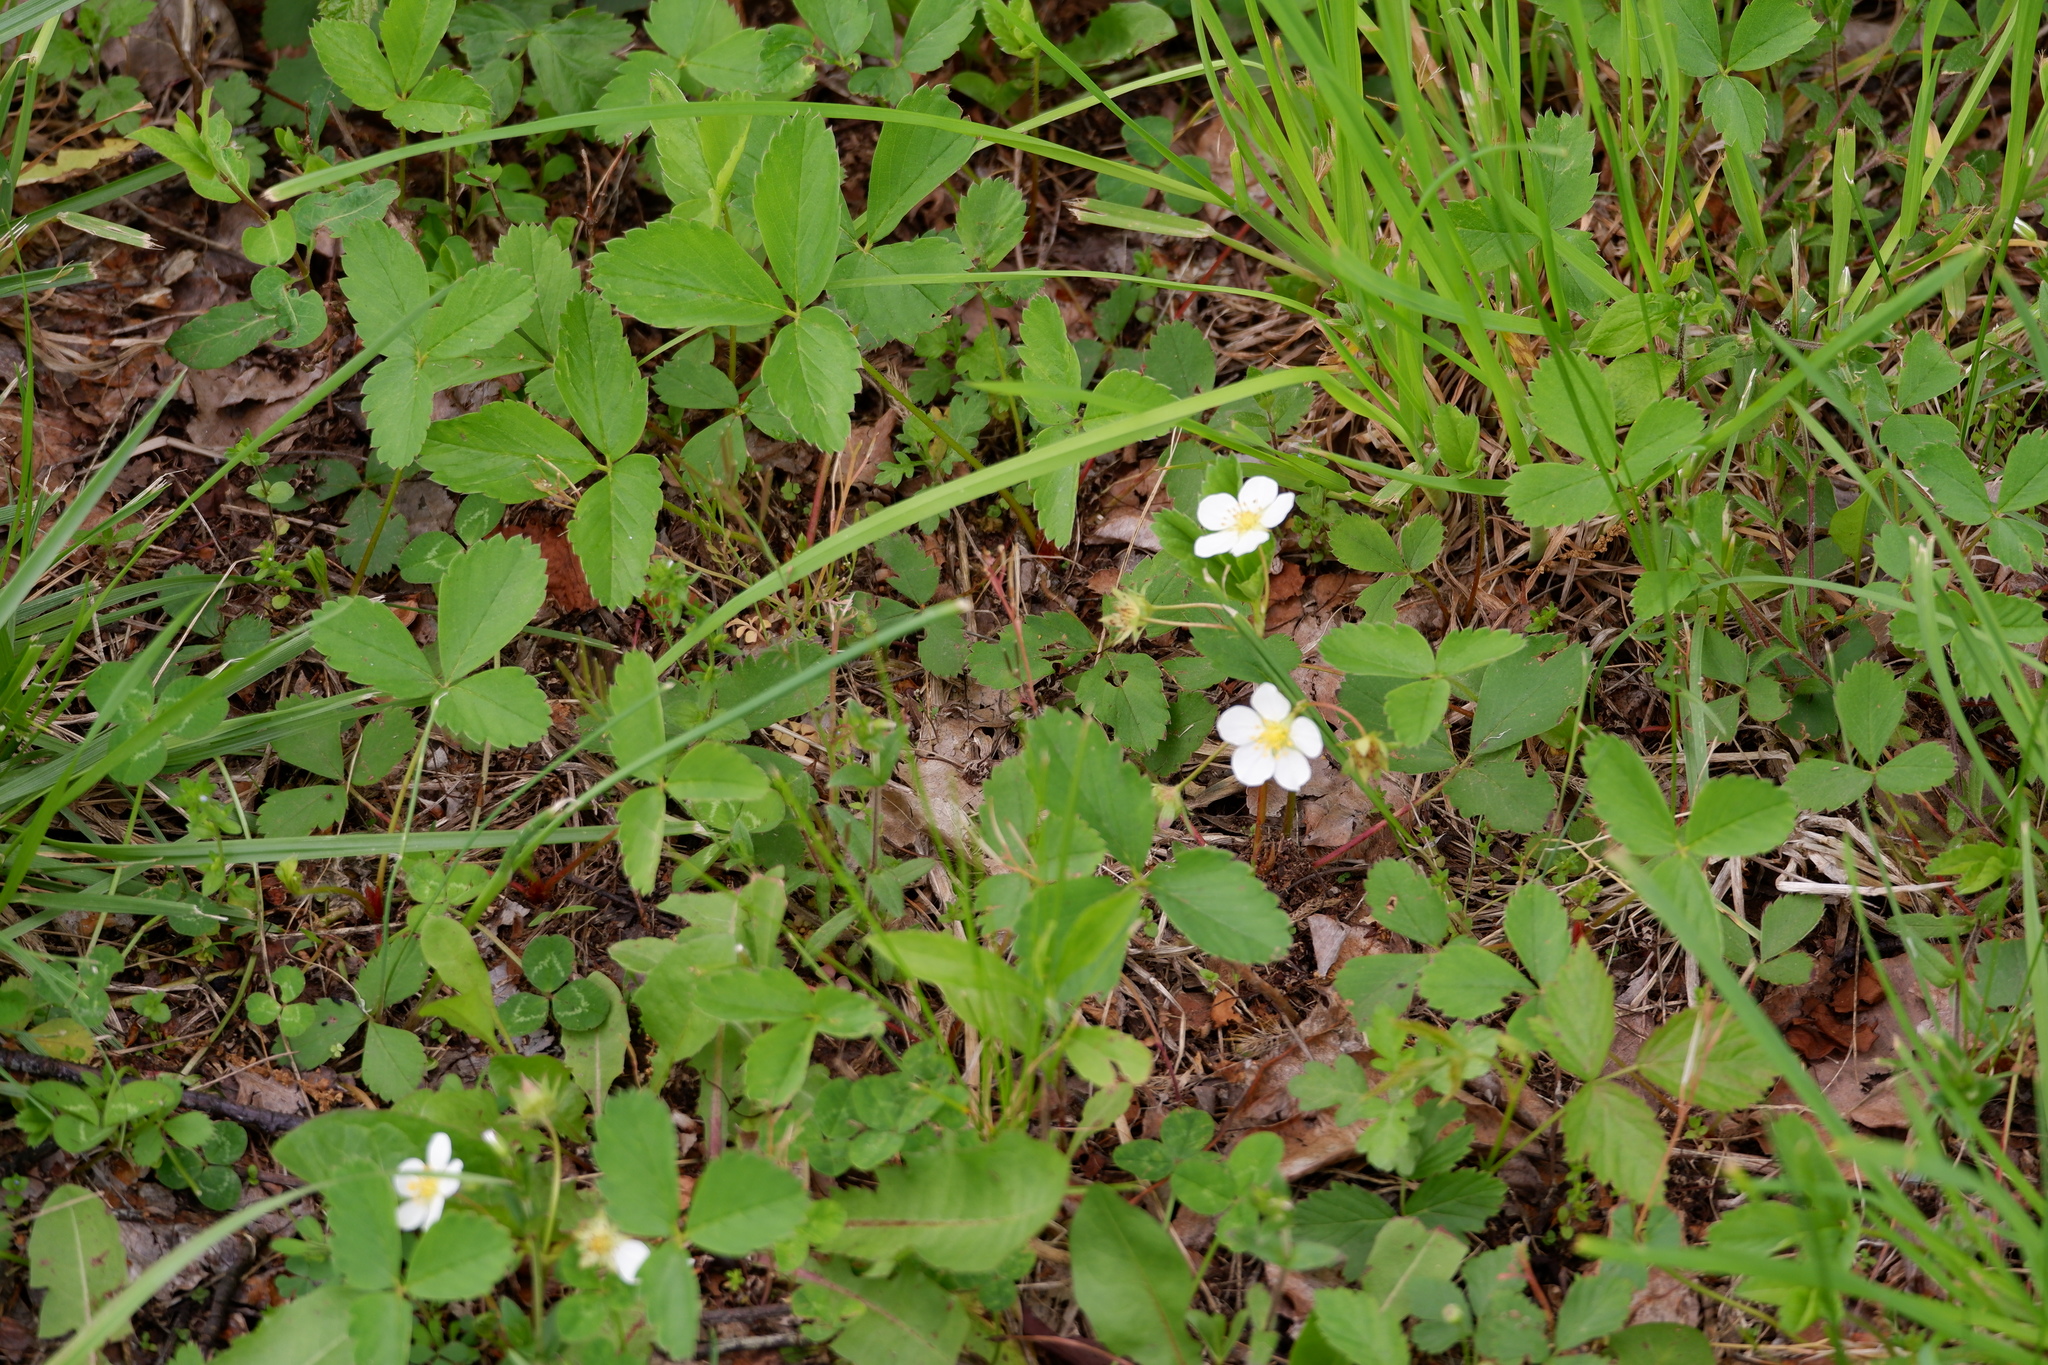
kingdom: Plantae
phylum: Tracheophyta
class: Magnoliopsida
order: Rosales
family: Rosaceae
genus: Fragaria
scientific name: Fragaria virginiana
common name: Thickleaved wild strawberry
